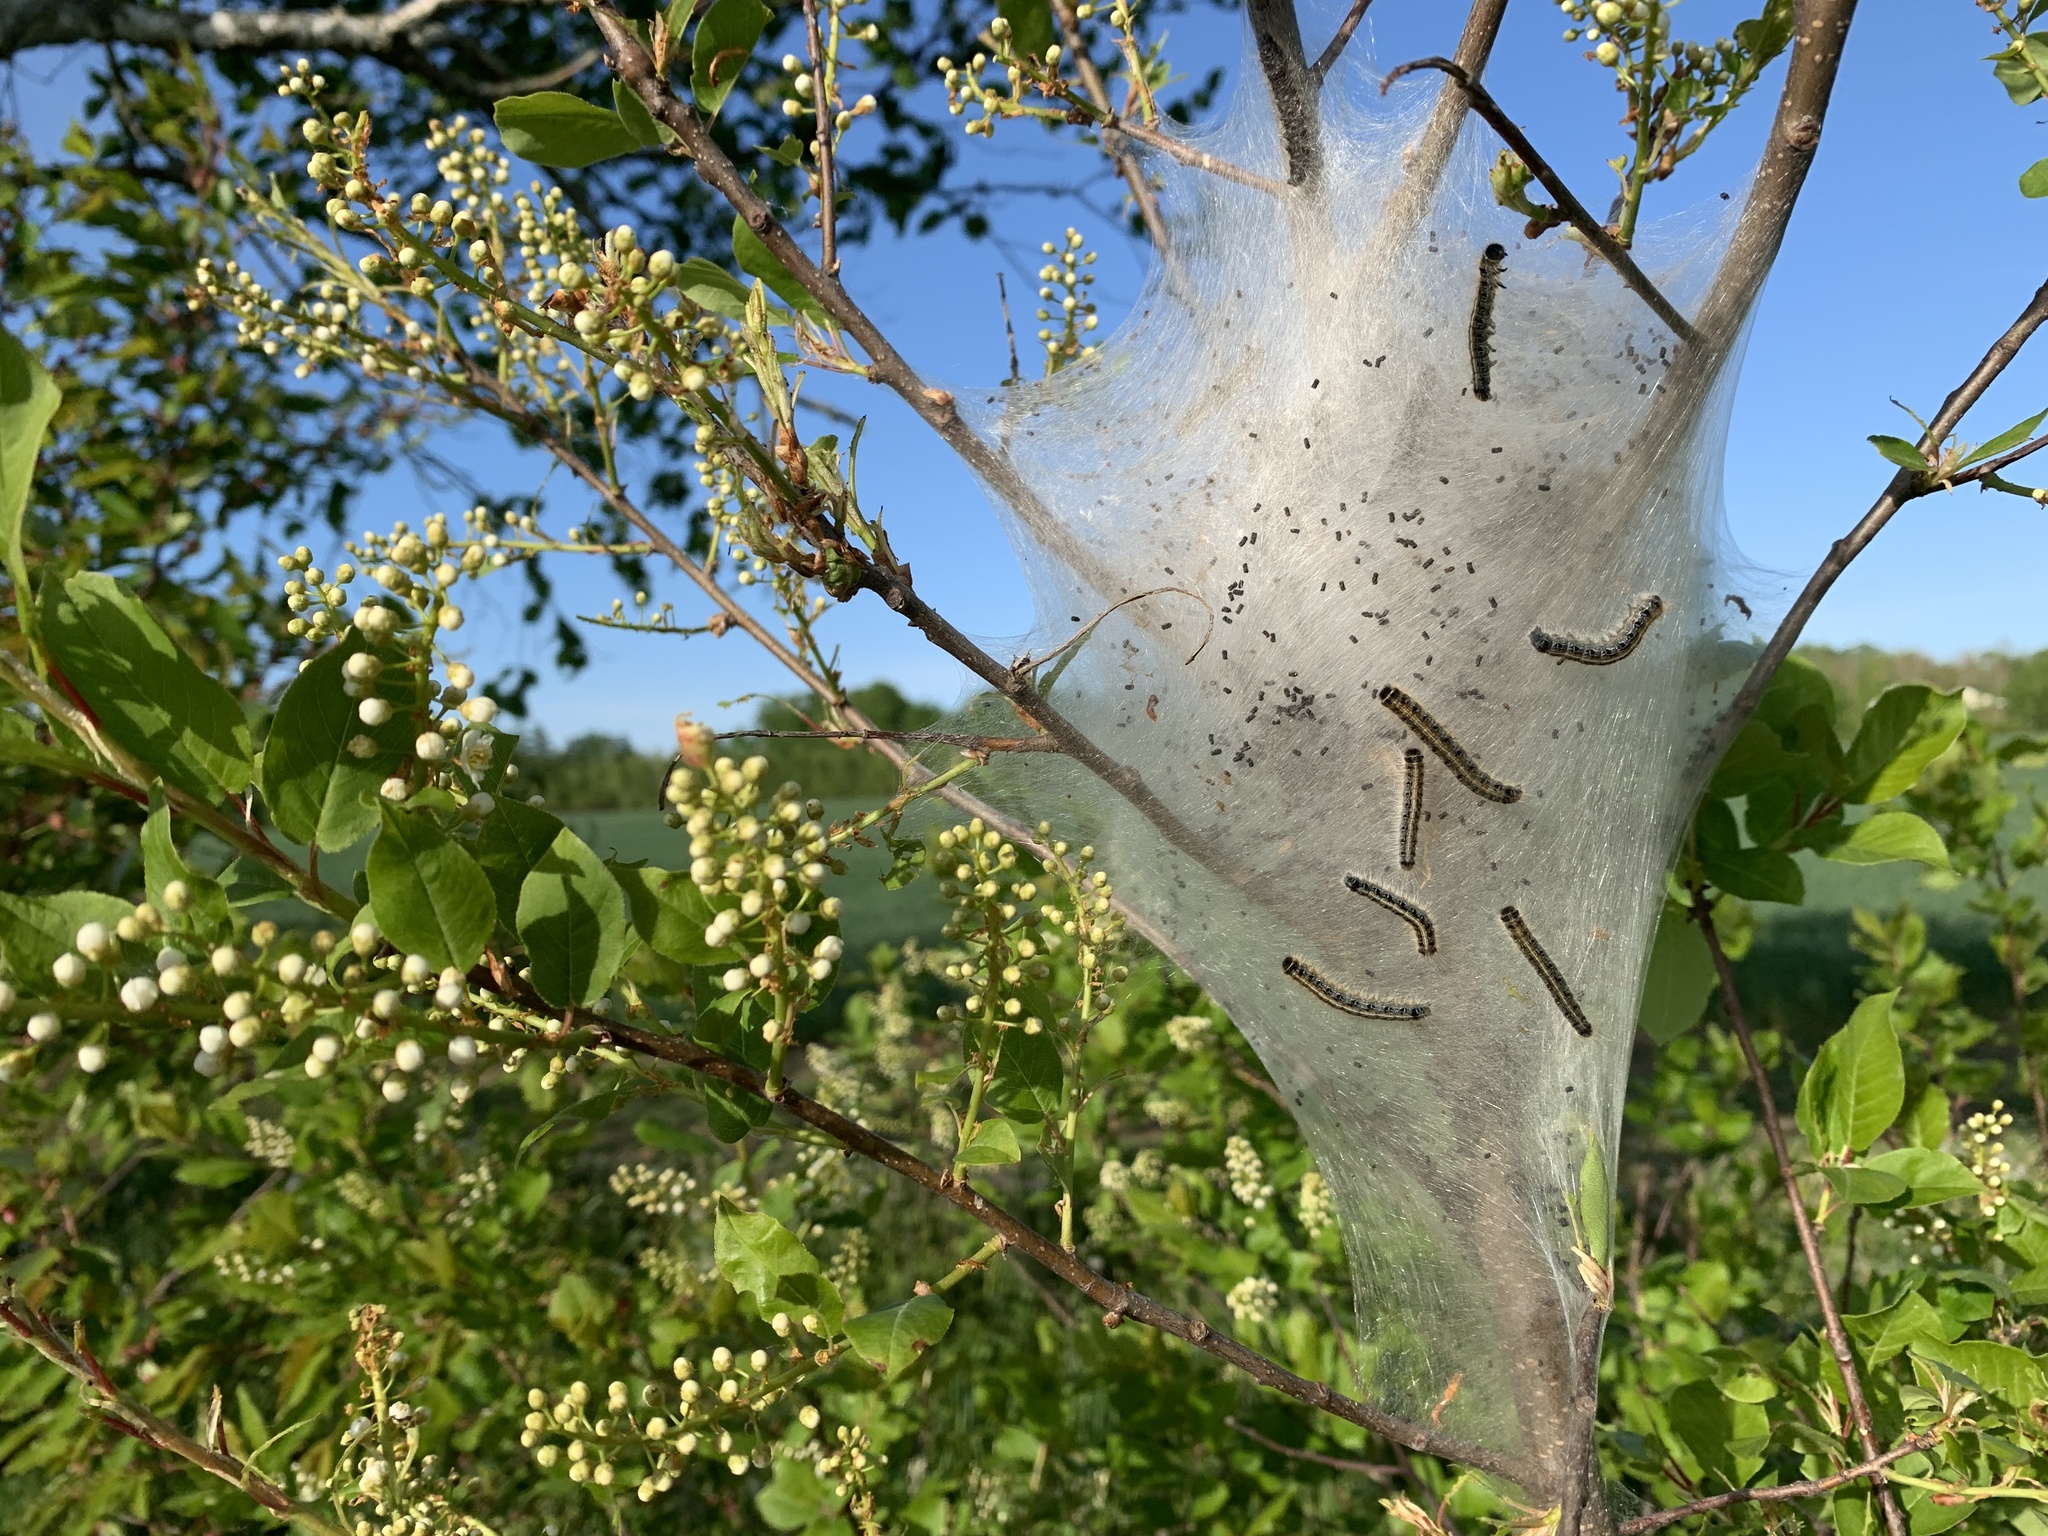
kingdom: Animalia
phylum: Arthropoda
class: Insecta
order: Lepidoptera
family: Lasiocampidae
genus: Malacosoma
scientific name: Malacosoma americana
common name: Eastern tent caterpillar moth
